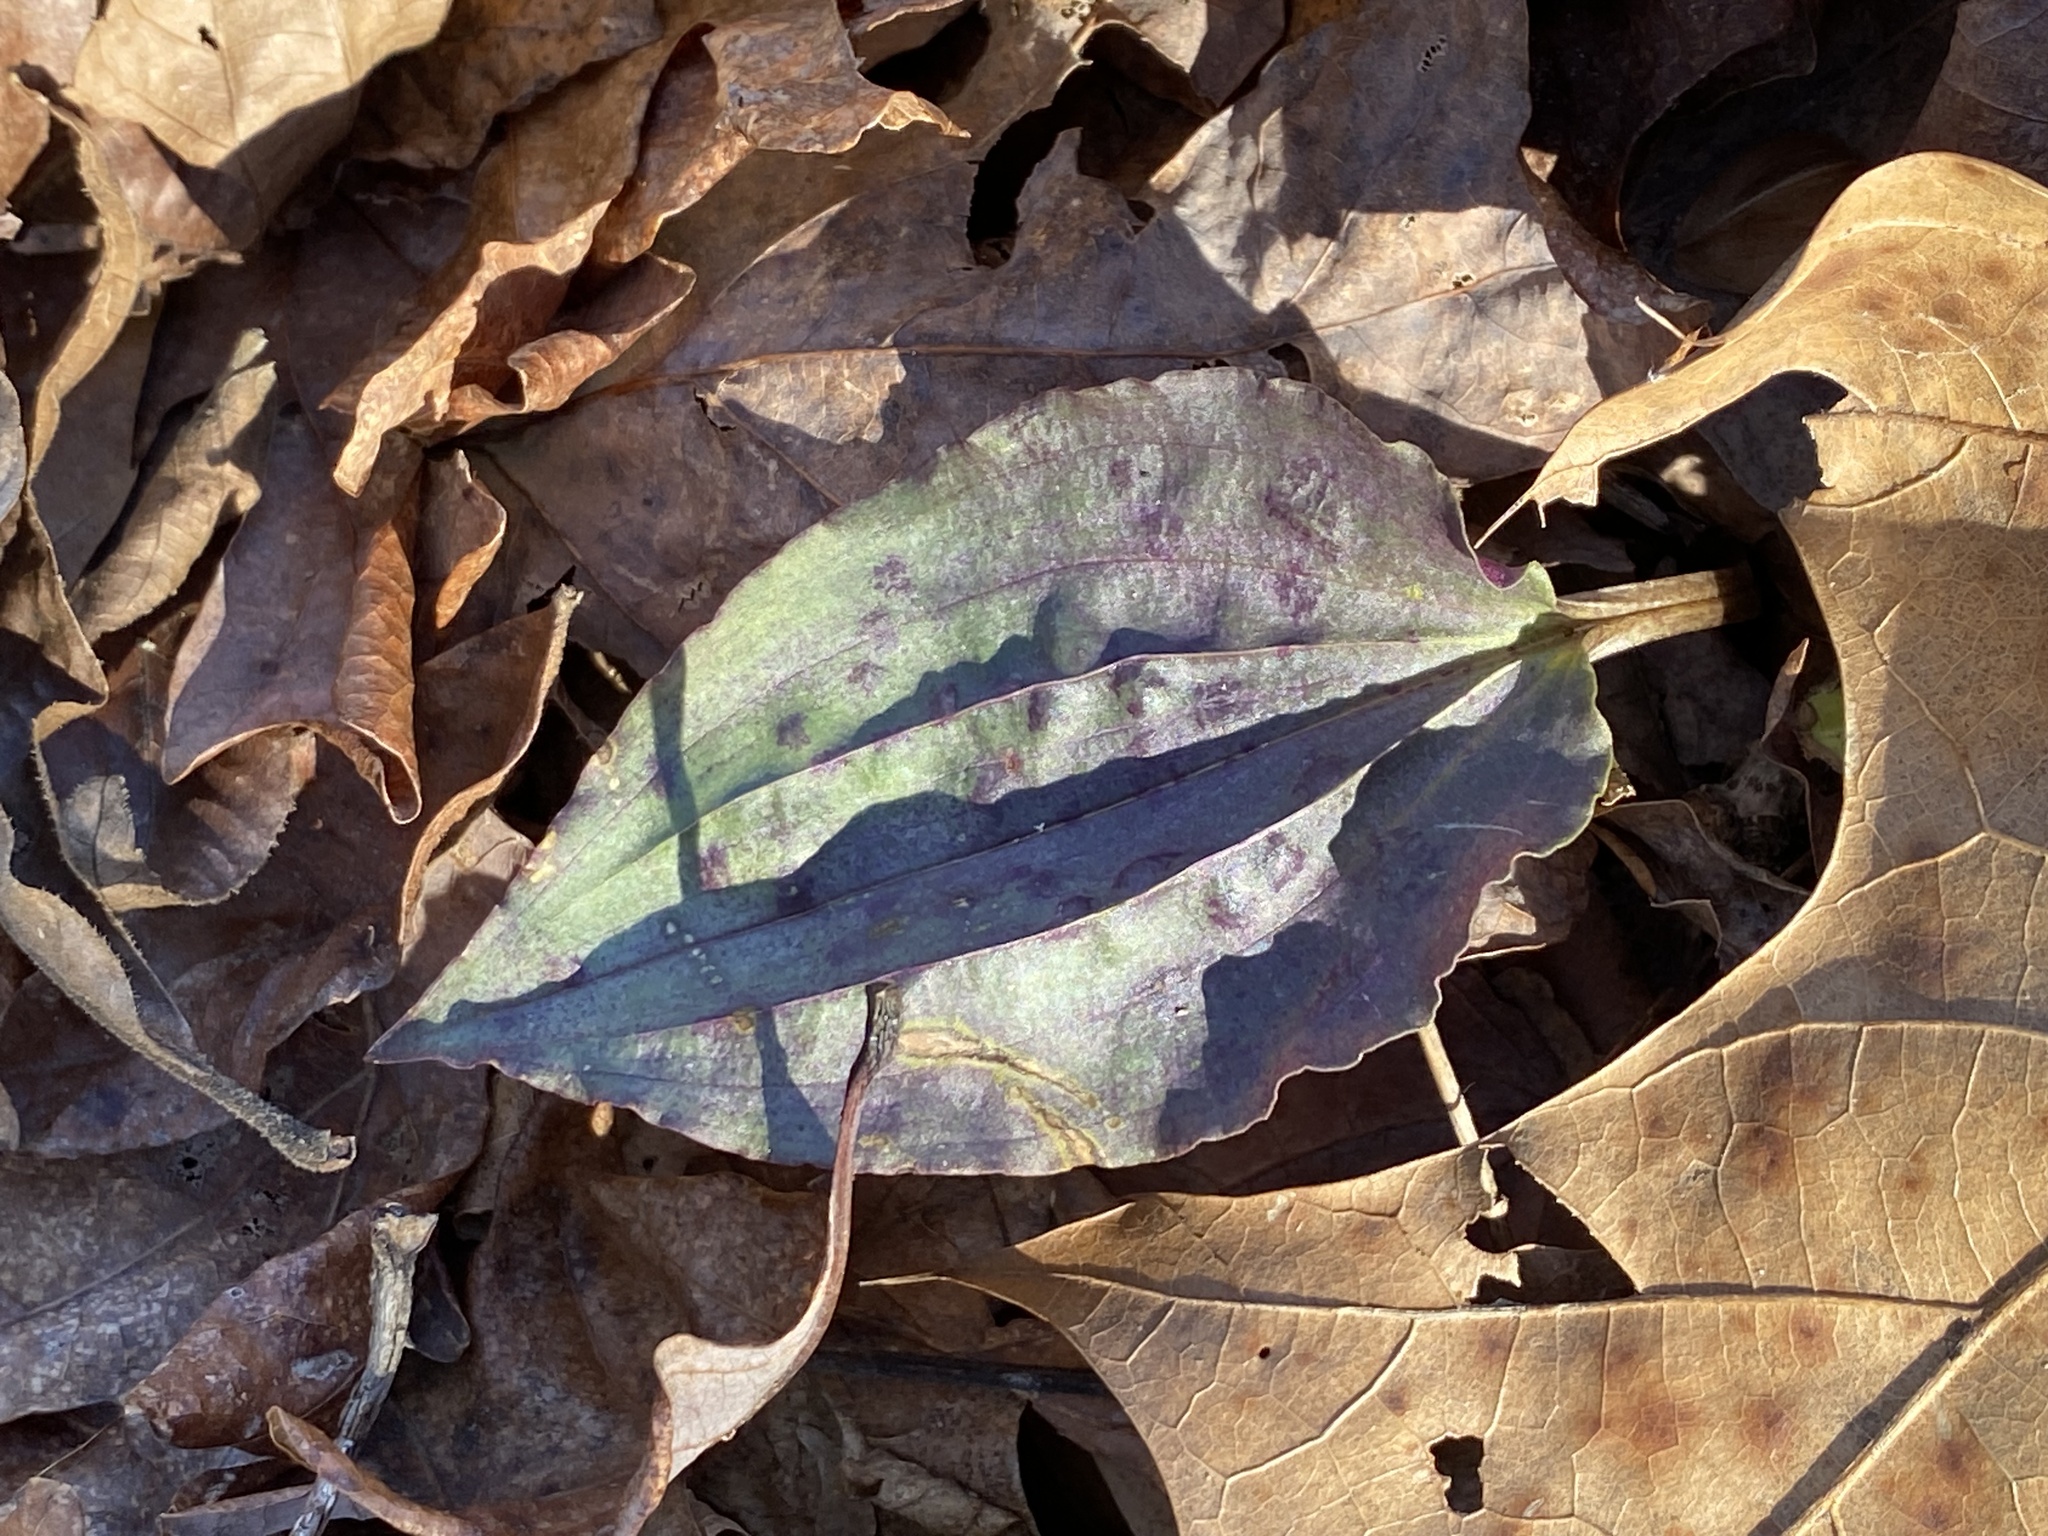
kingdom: Plantae
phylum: Tracheophyta
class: Liliopsida
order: Asparagales
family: Orchidaceae
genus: Tipularia
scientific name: Tipularia discolor
